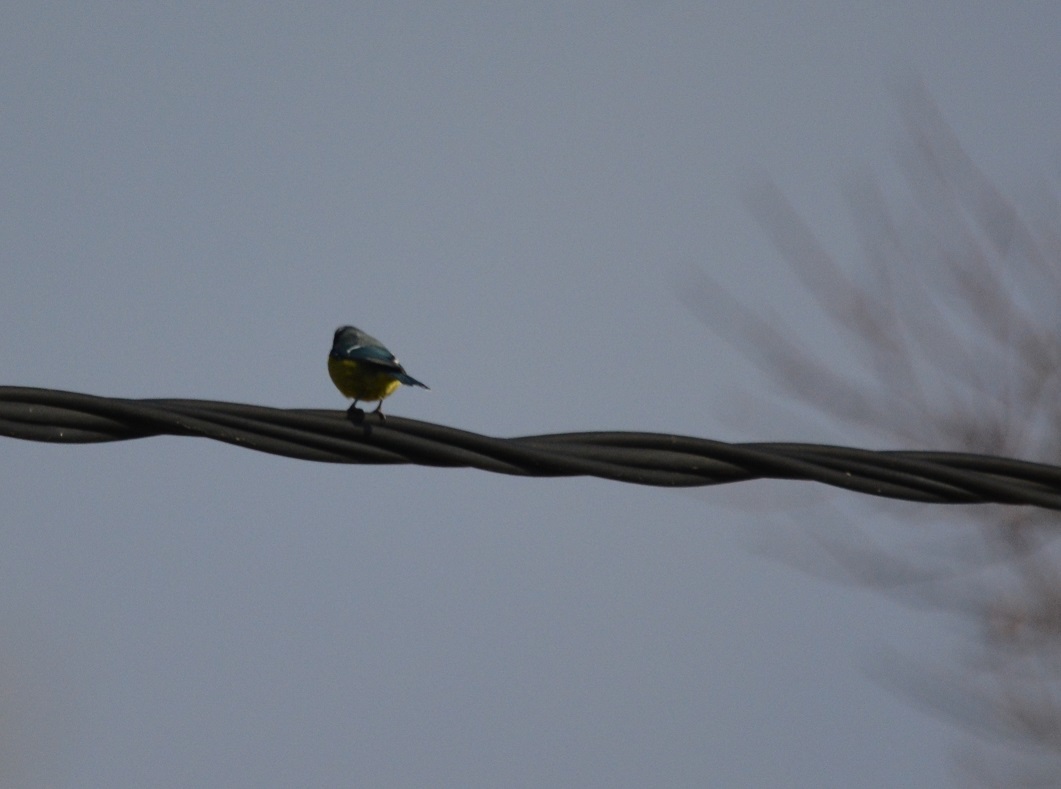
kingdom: Animalia
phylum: Chordata
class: Aves
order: Passeriformes
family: Paridae
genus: Cyanistes
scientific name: Cyanistes teneriffae
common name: African blue tit
